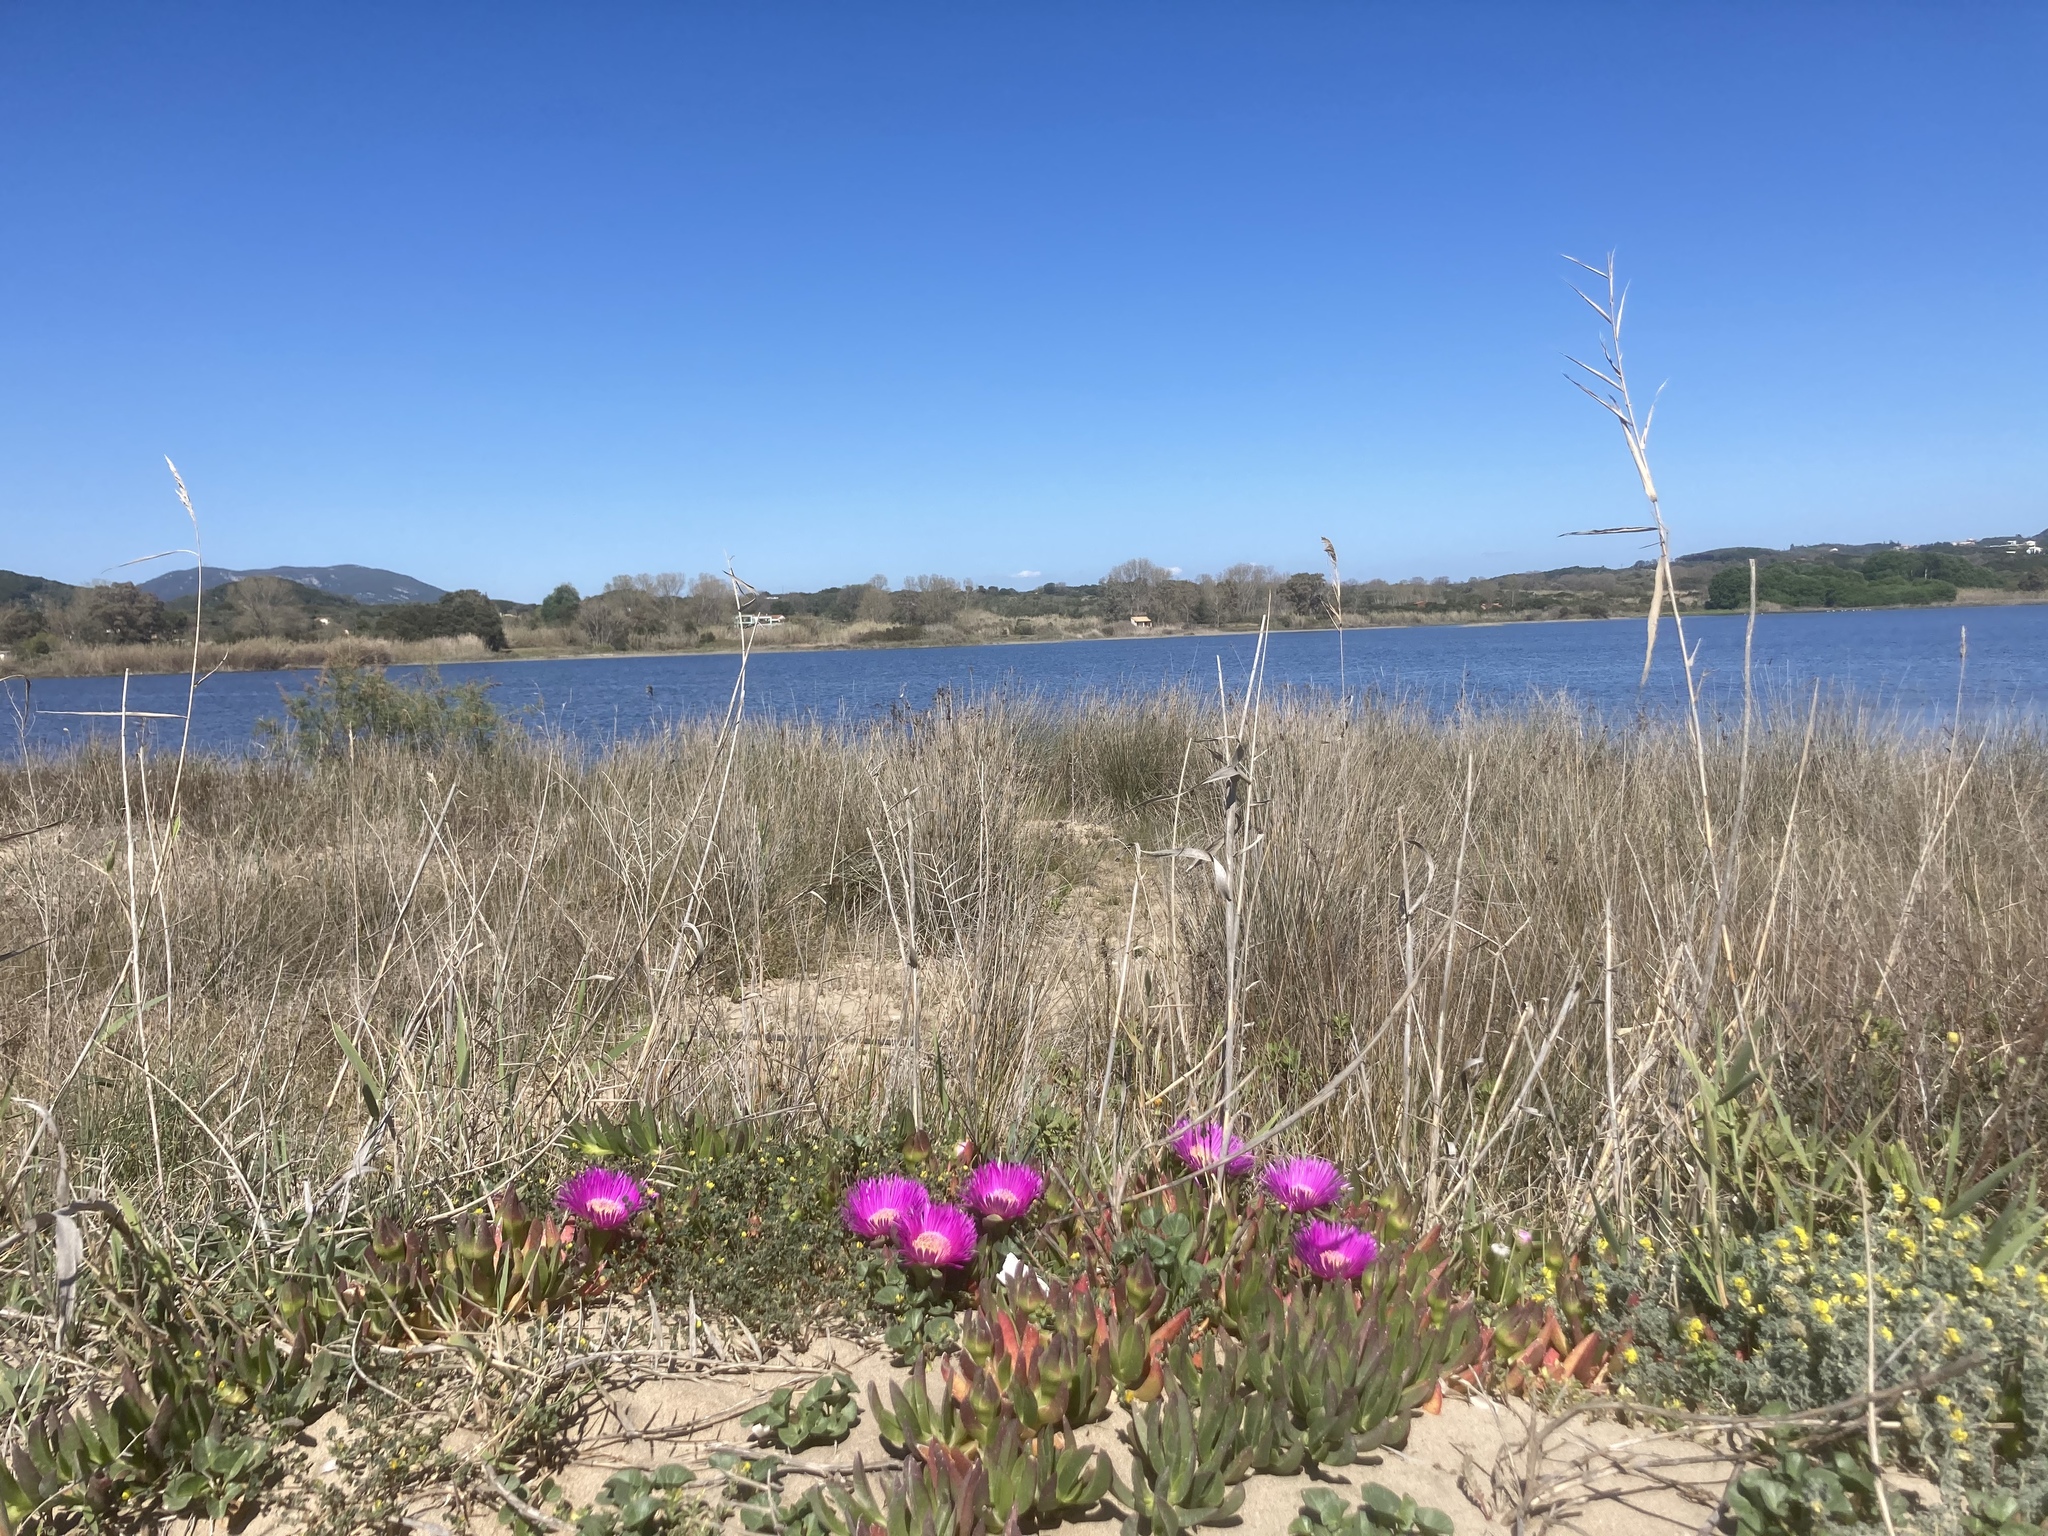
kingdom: Plantae
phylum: Tracheophyta
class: Magnoliopsida
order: Caryophyllales
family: Aizoaceae
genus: Carpobrotus
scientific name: Carpobrotus acinaciformis
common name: Sally-my-handsome
